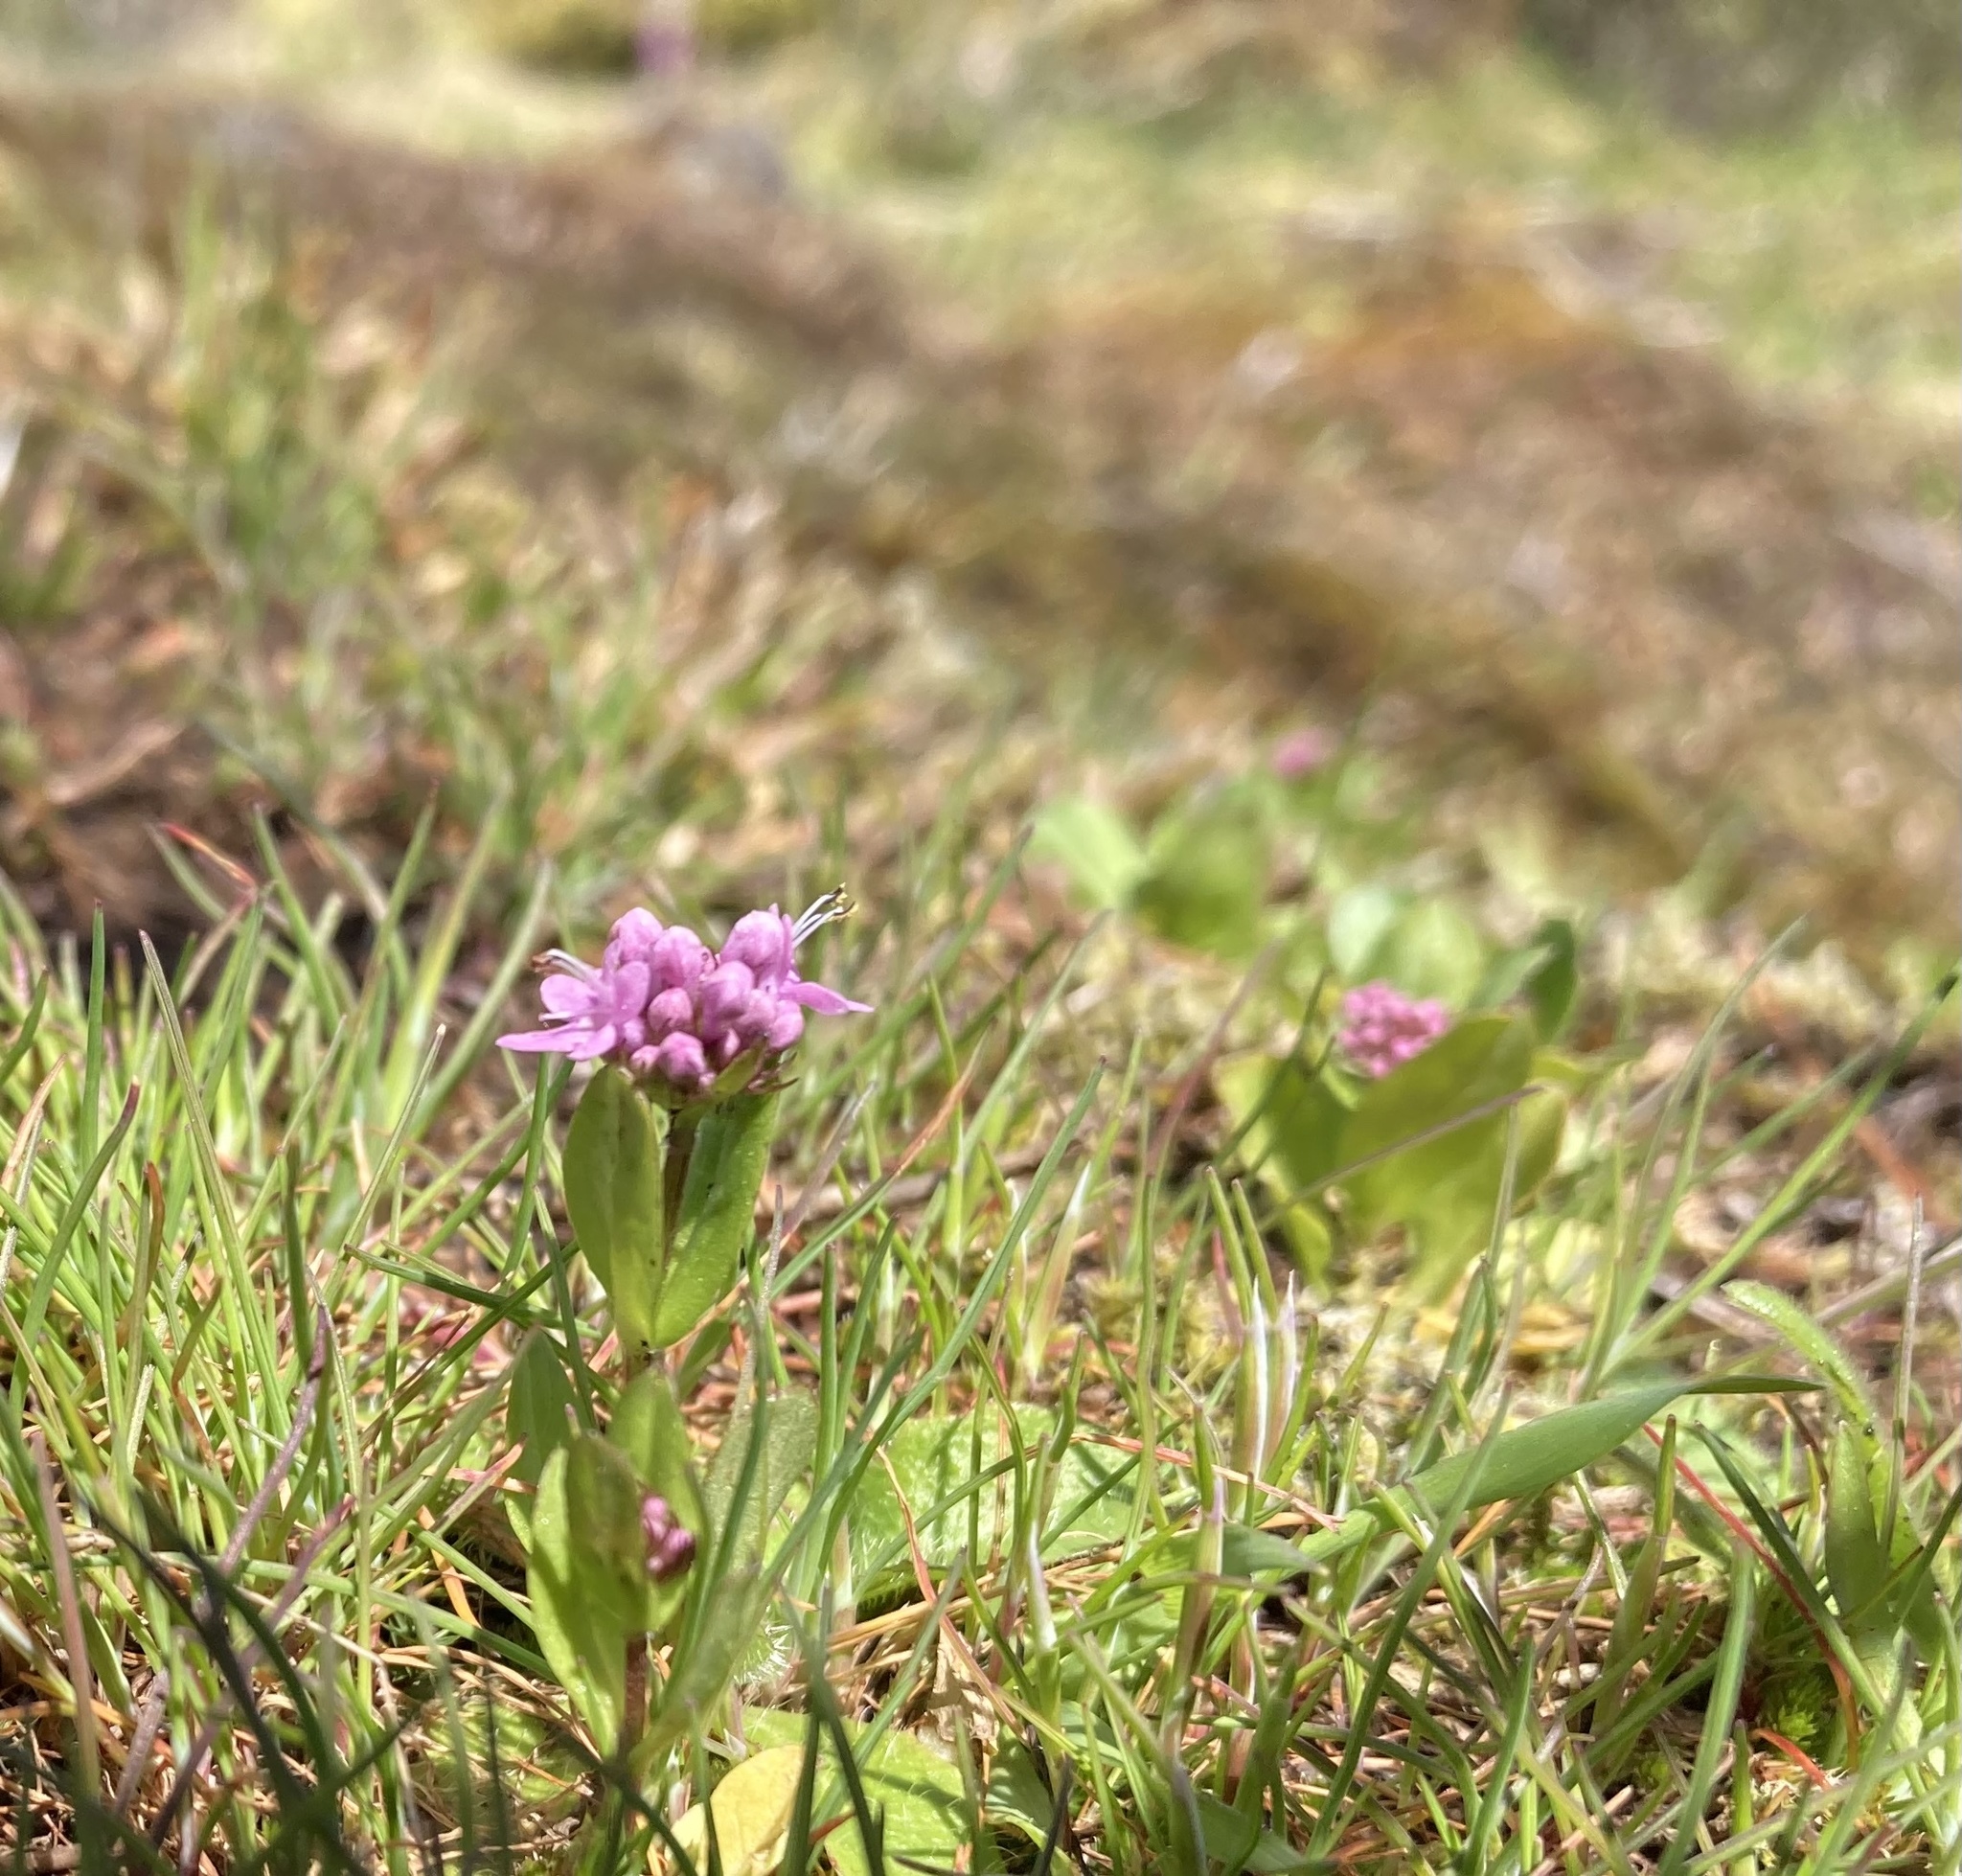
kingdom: Plantae
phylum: Tracheophyta
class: Magnoliopsida
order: Dipsacales
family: Caprifoliaceae
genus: Plectritis
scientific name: Plectritis congesta
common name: Pink plectritis
